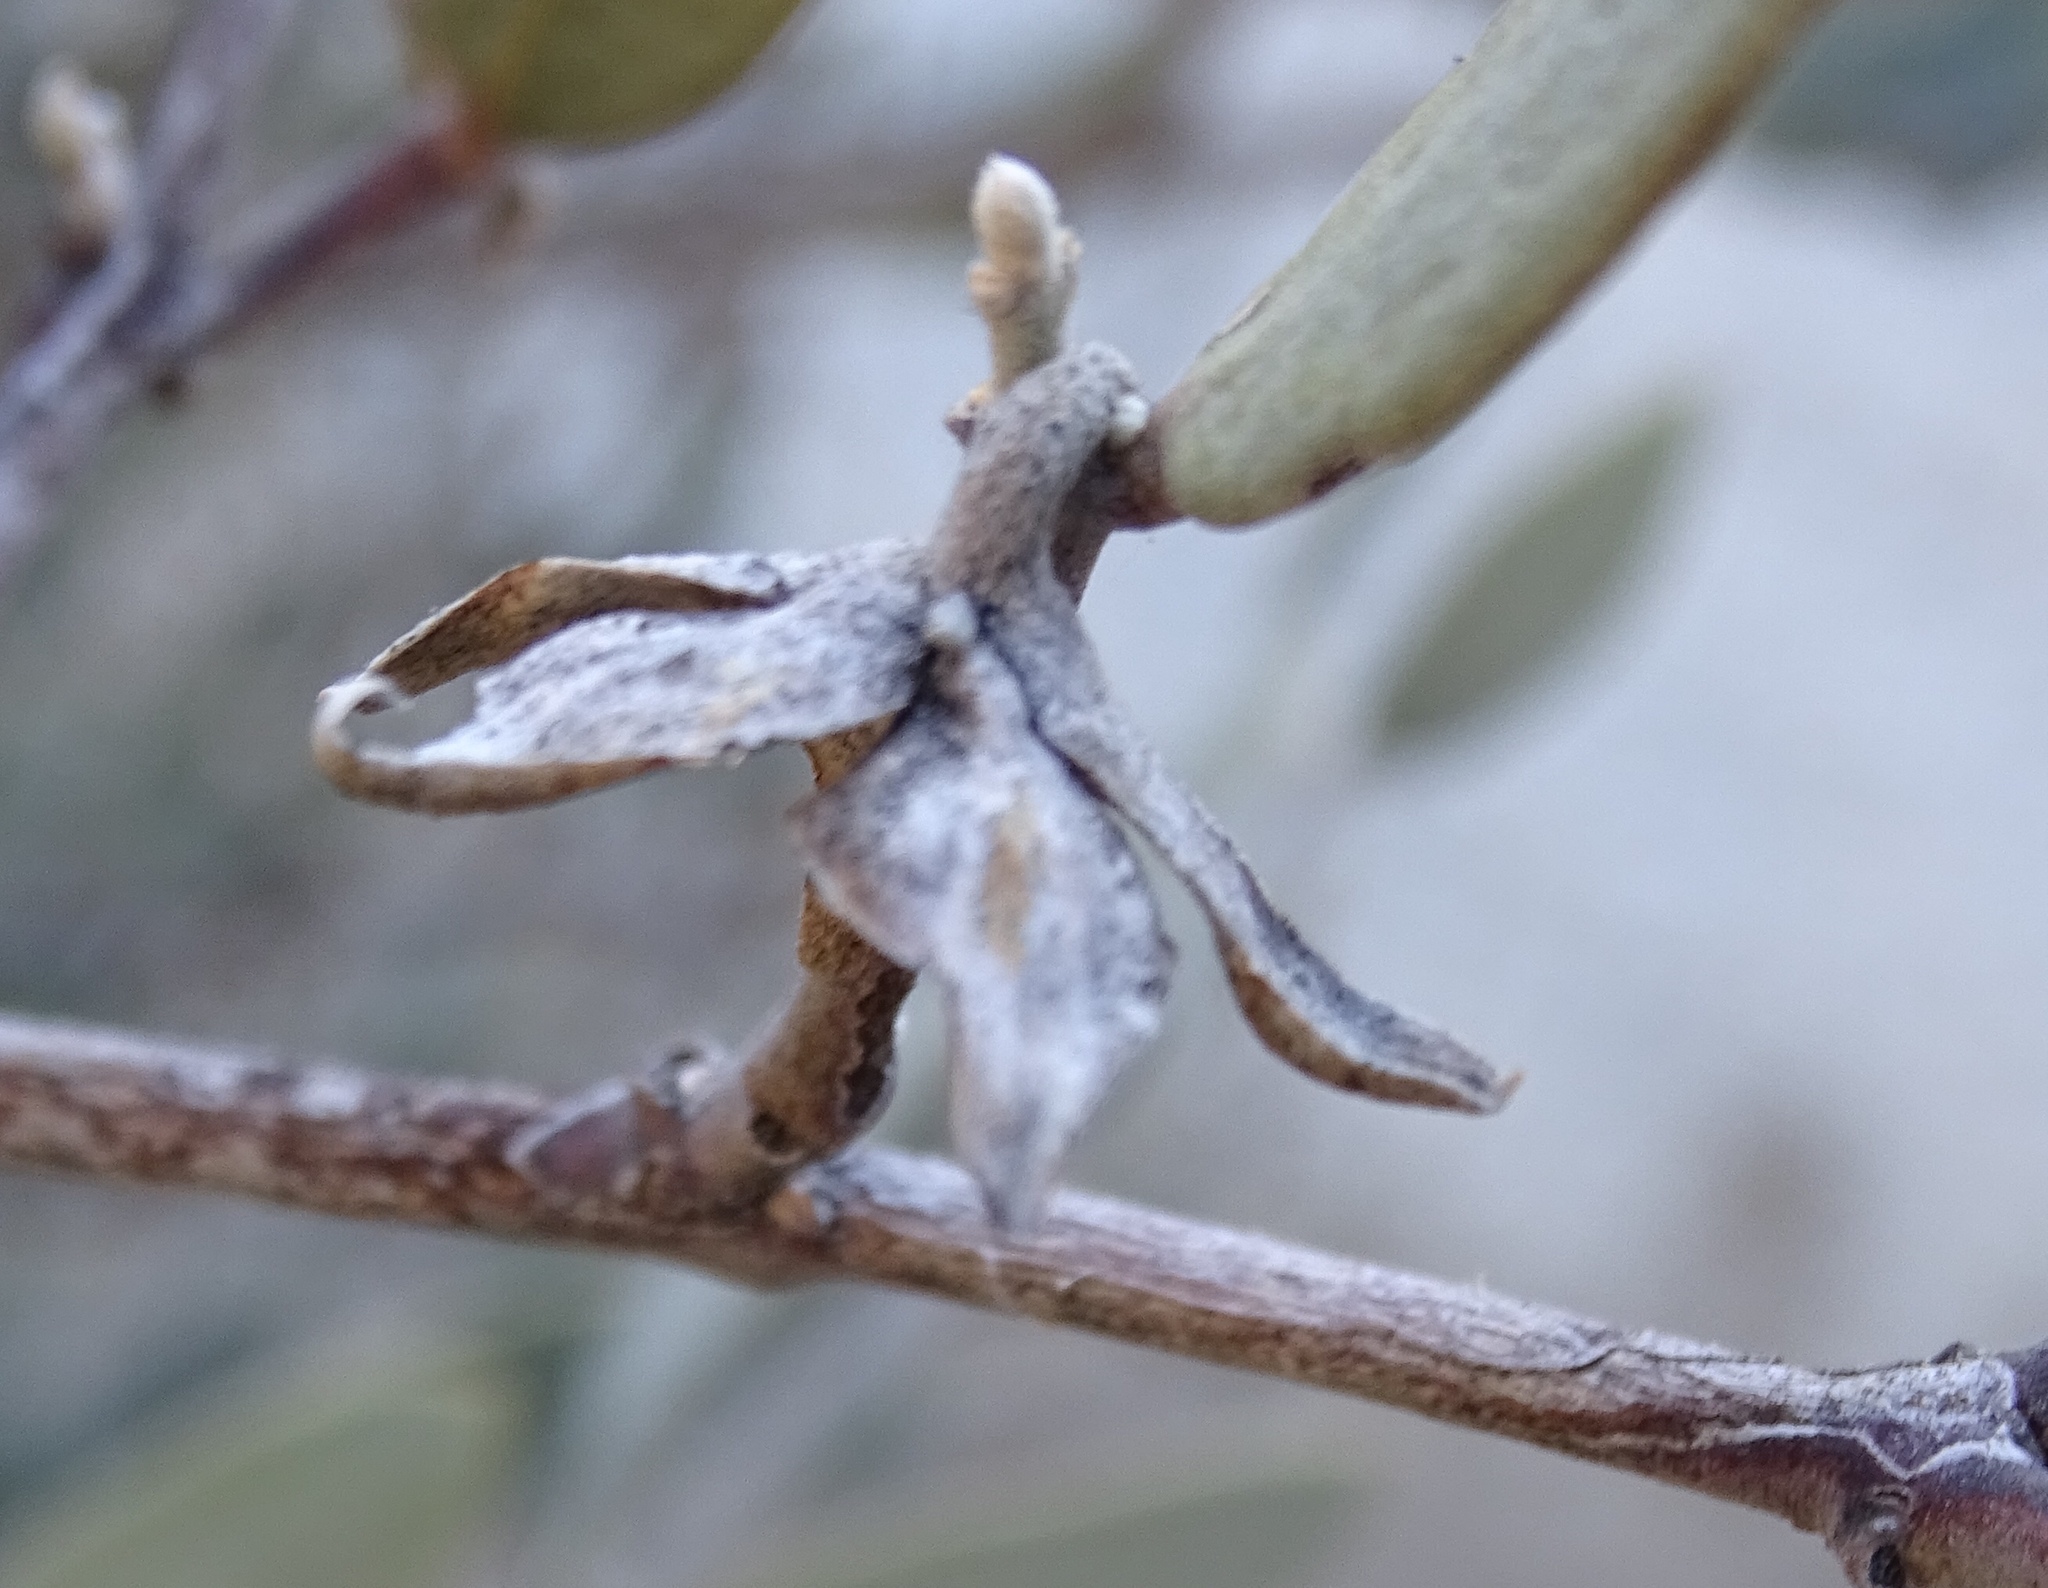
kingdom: Plantae
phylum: Tracheophyta
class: Magnoliopsida
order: Caryophyllales
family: Simmondsiaceae
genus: Simmondsia
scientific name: Simmondsia chinensis
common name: Jojoba
